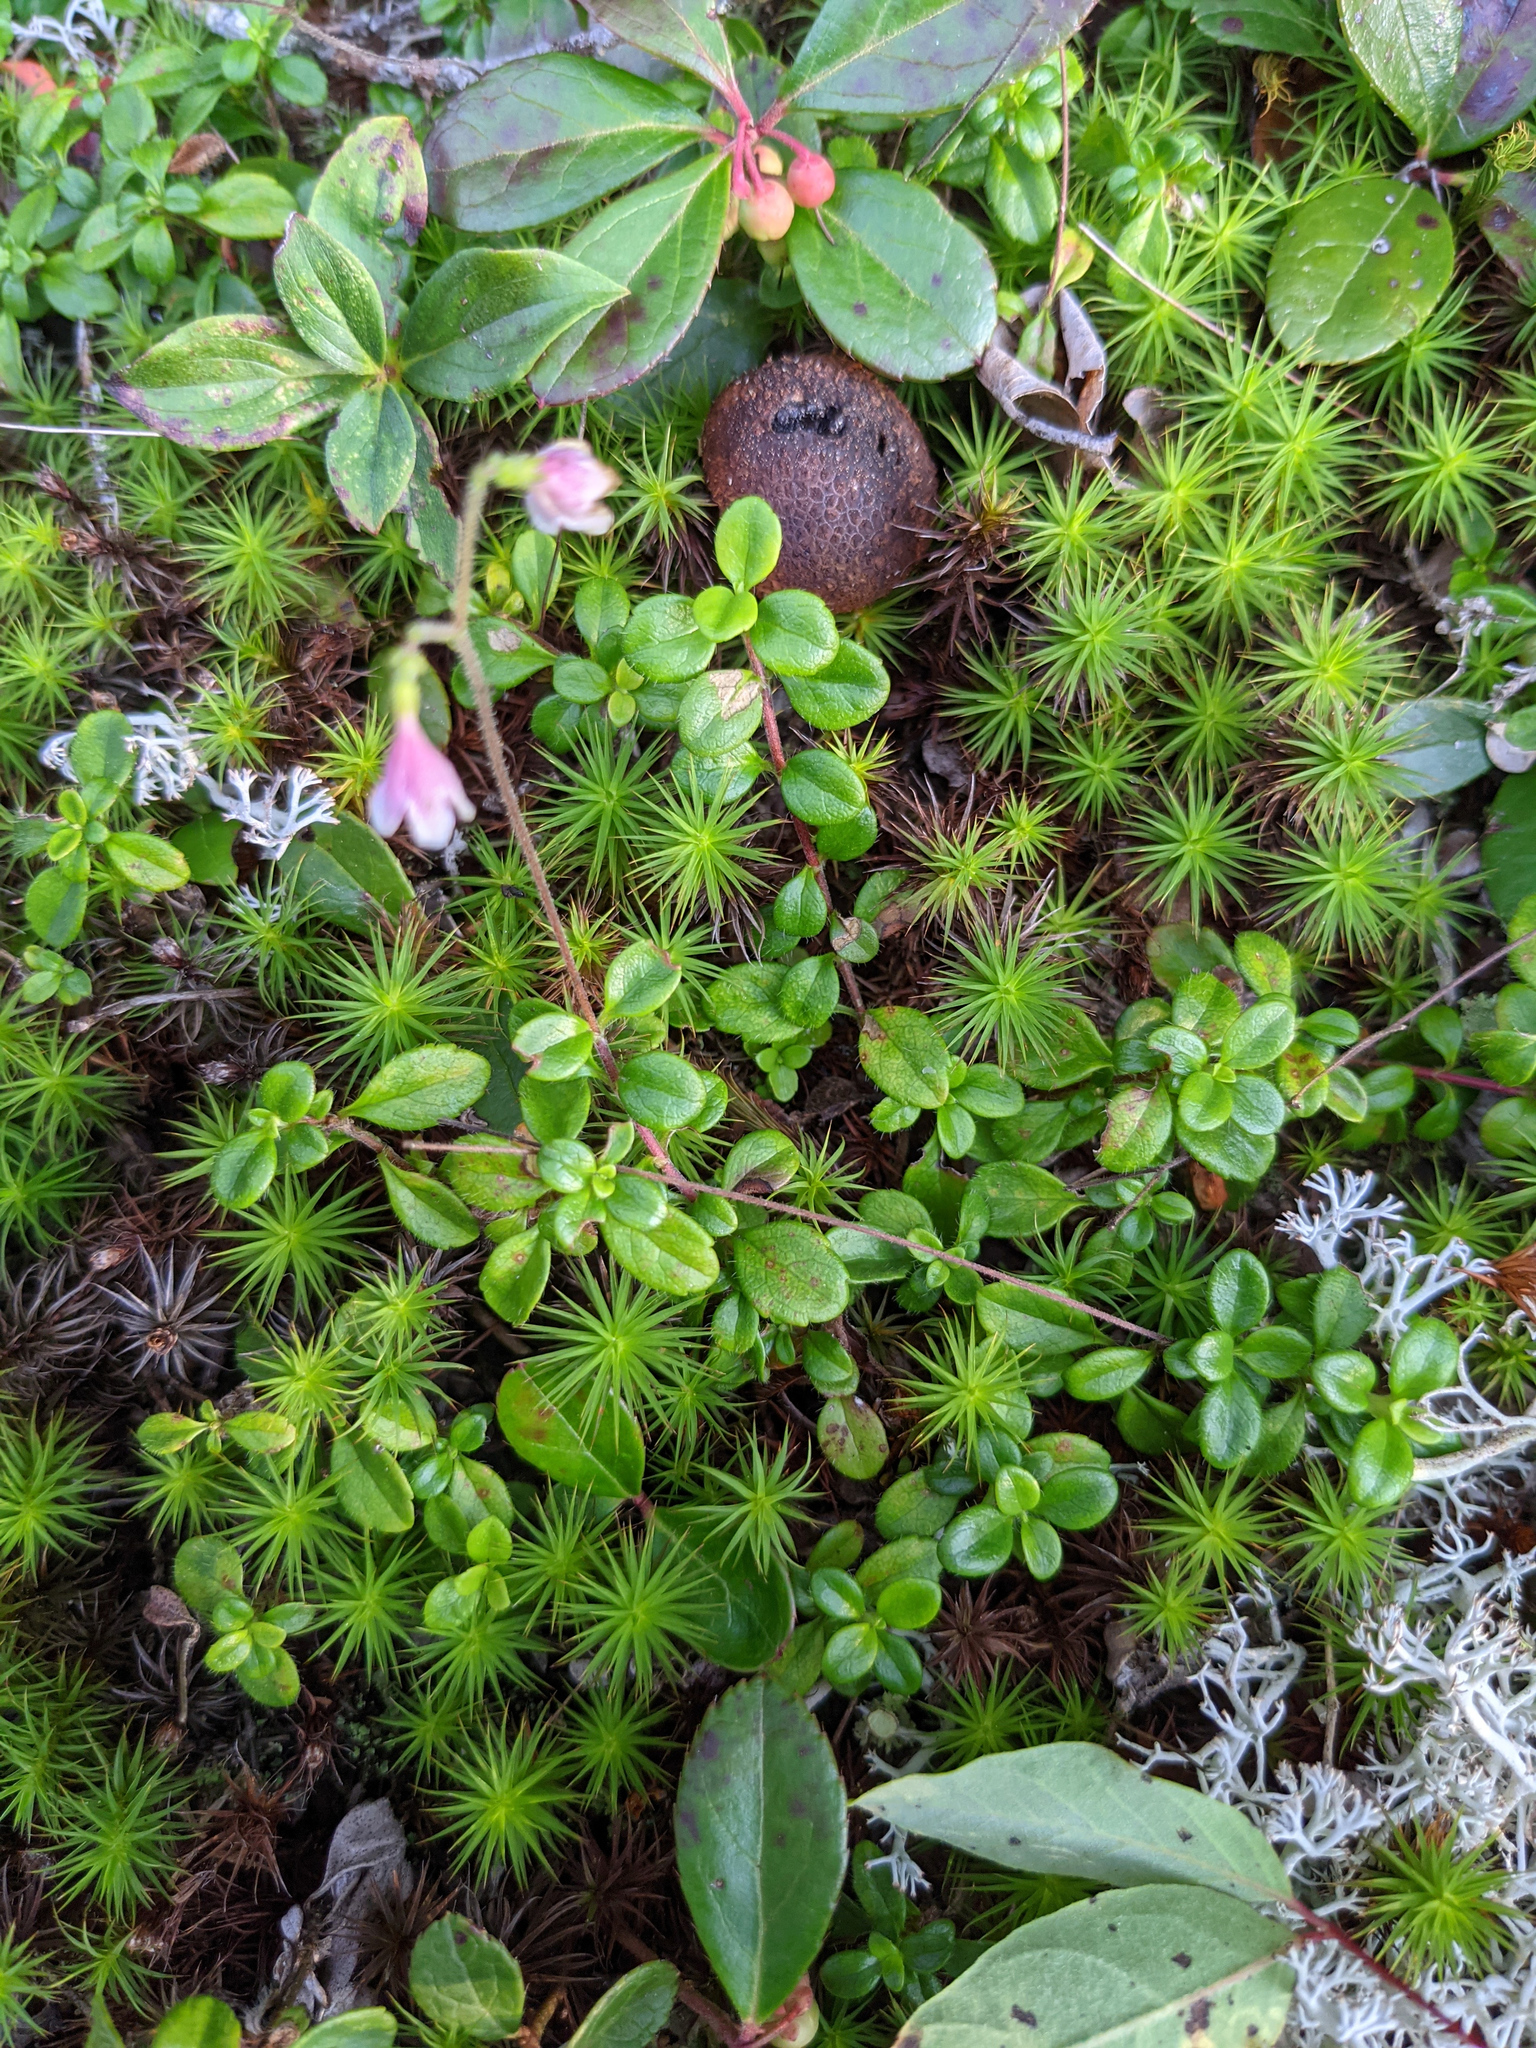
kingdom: Plantae
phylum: Tracheophyta
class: Magnoliopsida
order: Dipsacales
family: Caprifoliaceae
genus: Linnaea
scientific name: Linnaea borealis
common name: Twinflower
